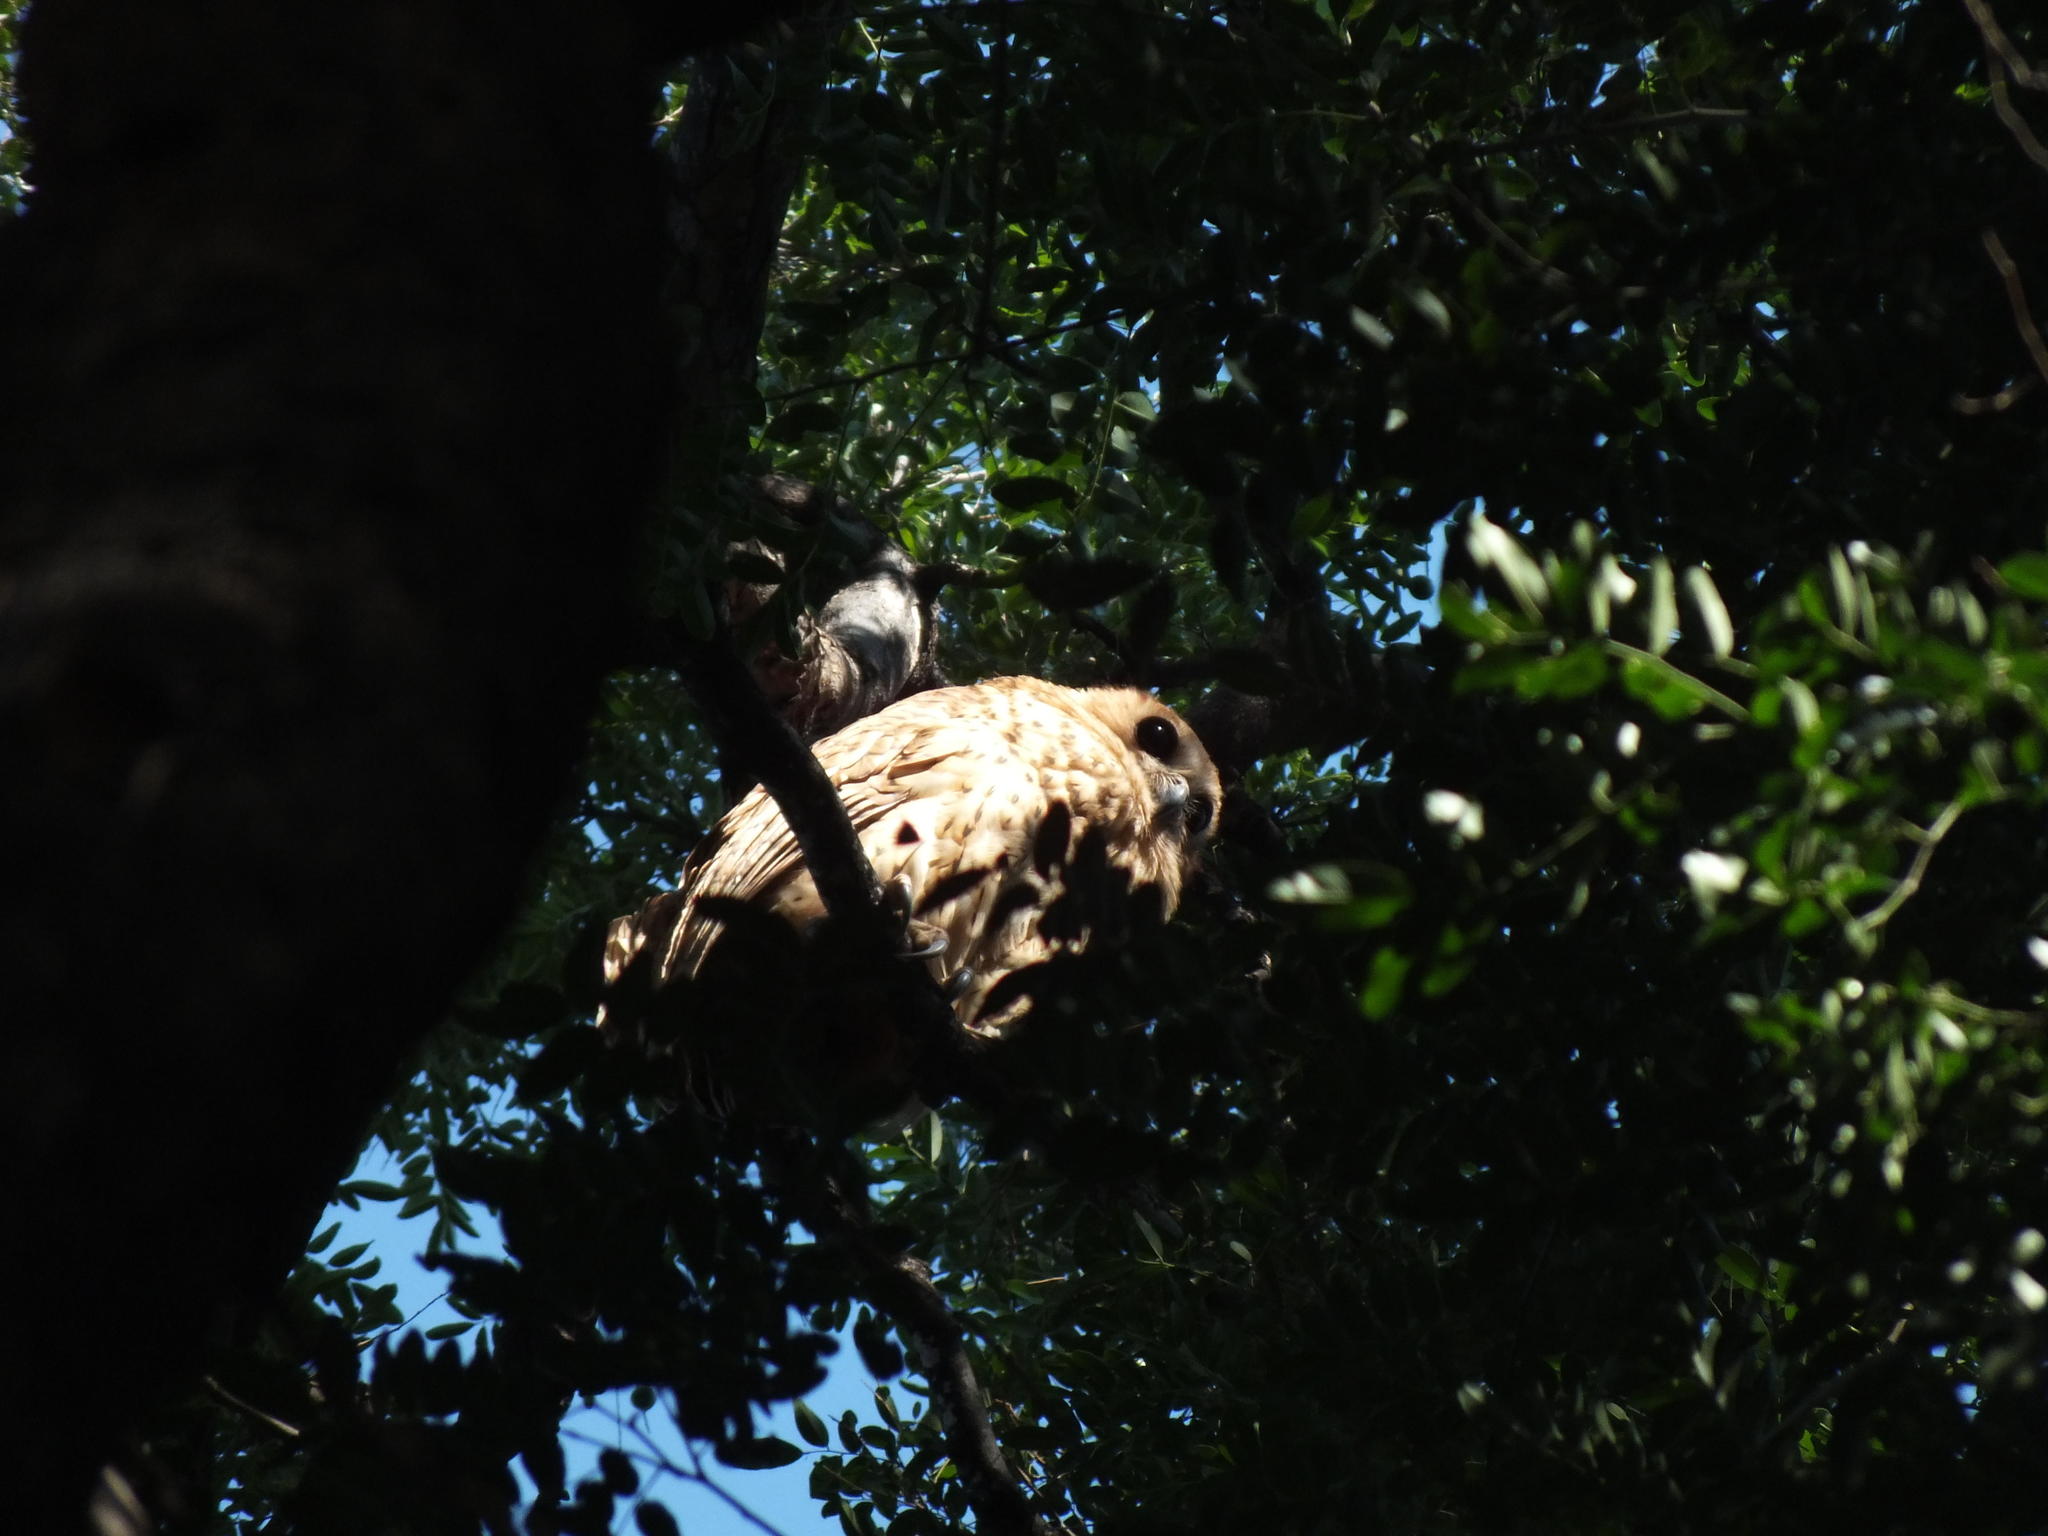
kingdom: Animalia
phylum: Chordata
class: Aves
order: Strigiformes
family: Strigidae
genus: Scotopelia
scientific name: Scotopelia peli
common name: Pel's fishing owl
